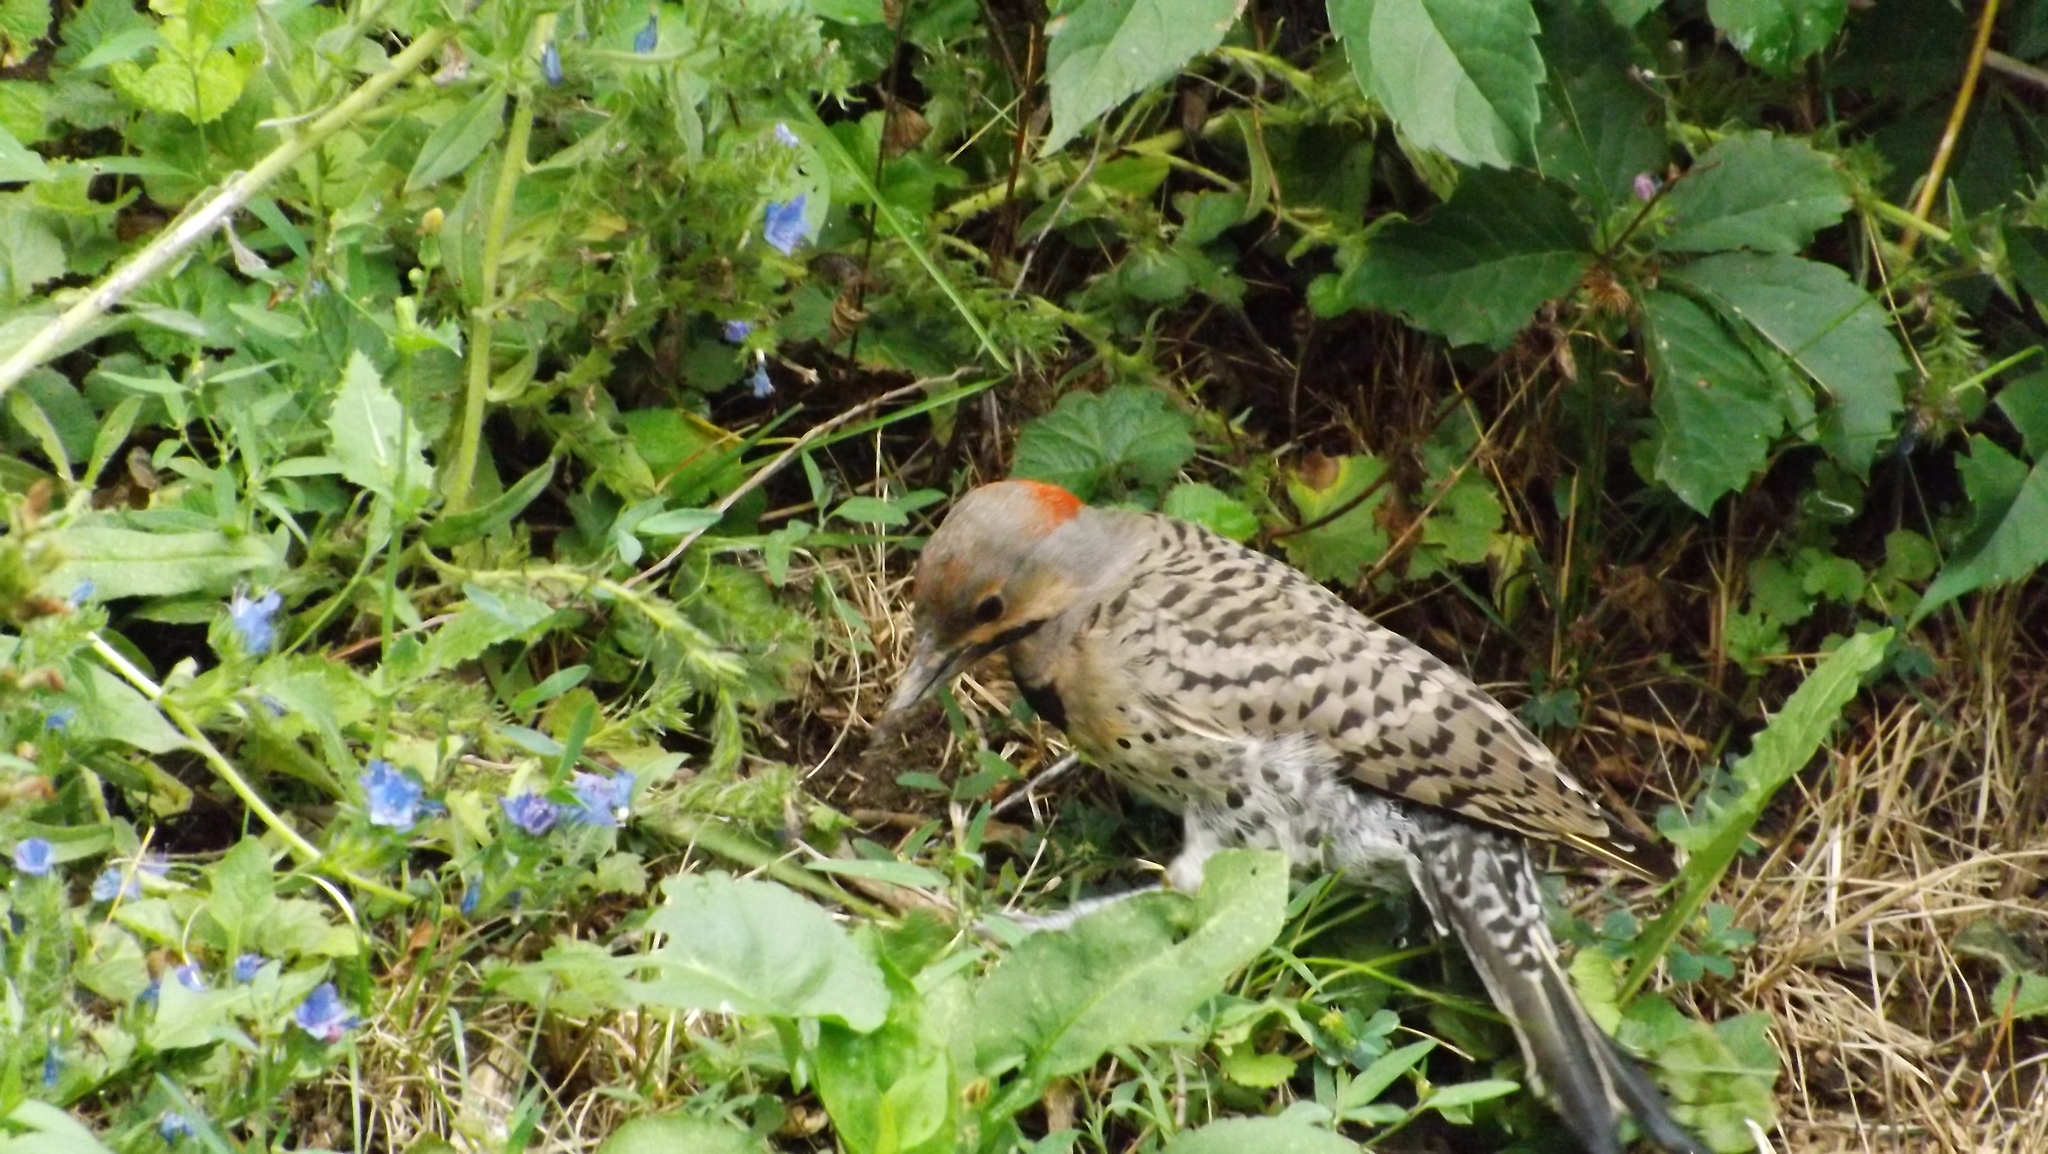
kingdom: Animalia
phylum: Chordata
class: Aves
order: Piciformes
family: Picidae
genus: Colaptes
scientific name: Colaptes auratus
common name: Northern flicker
